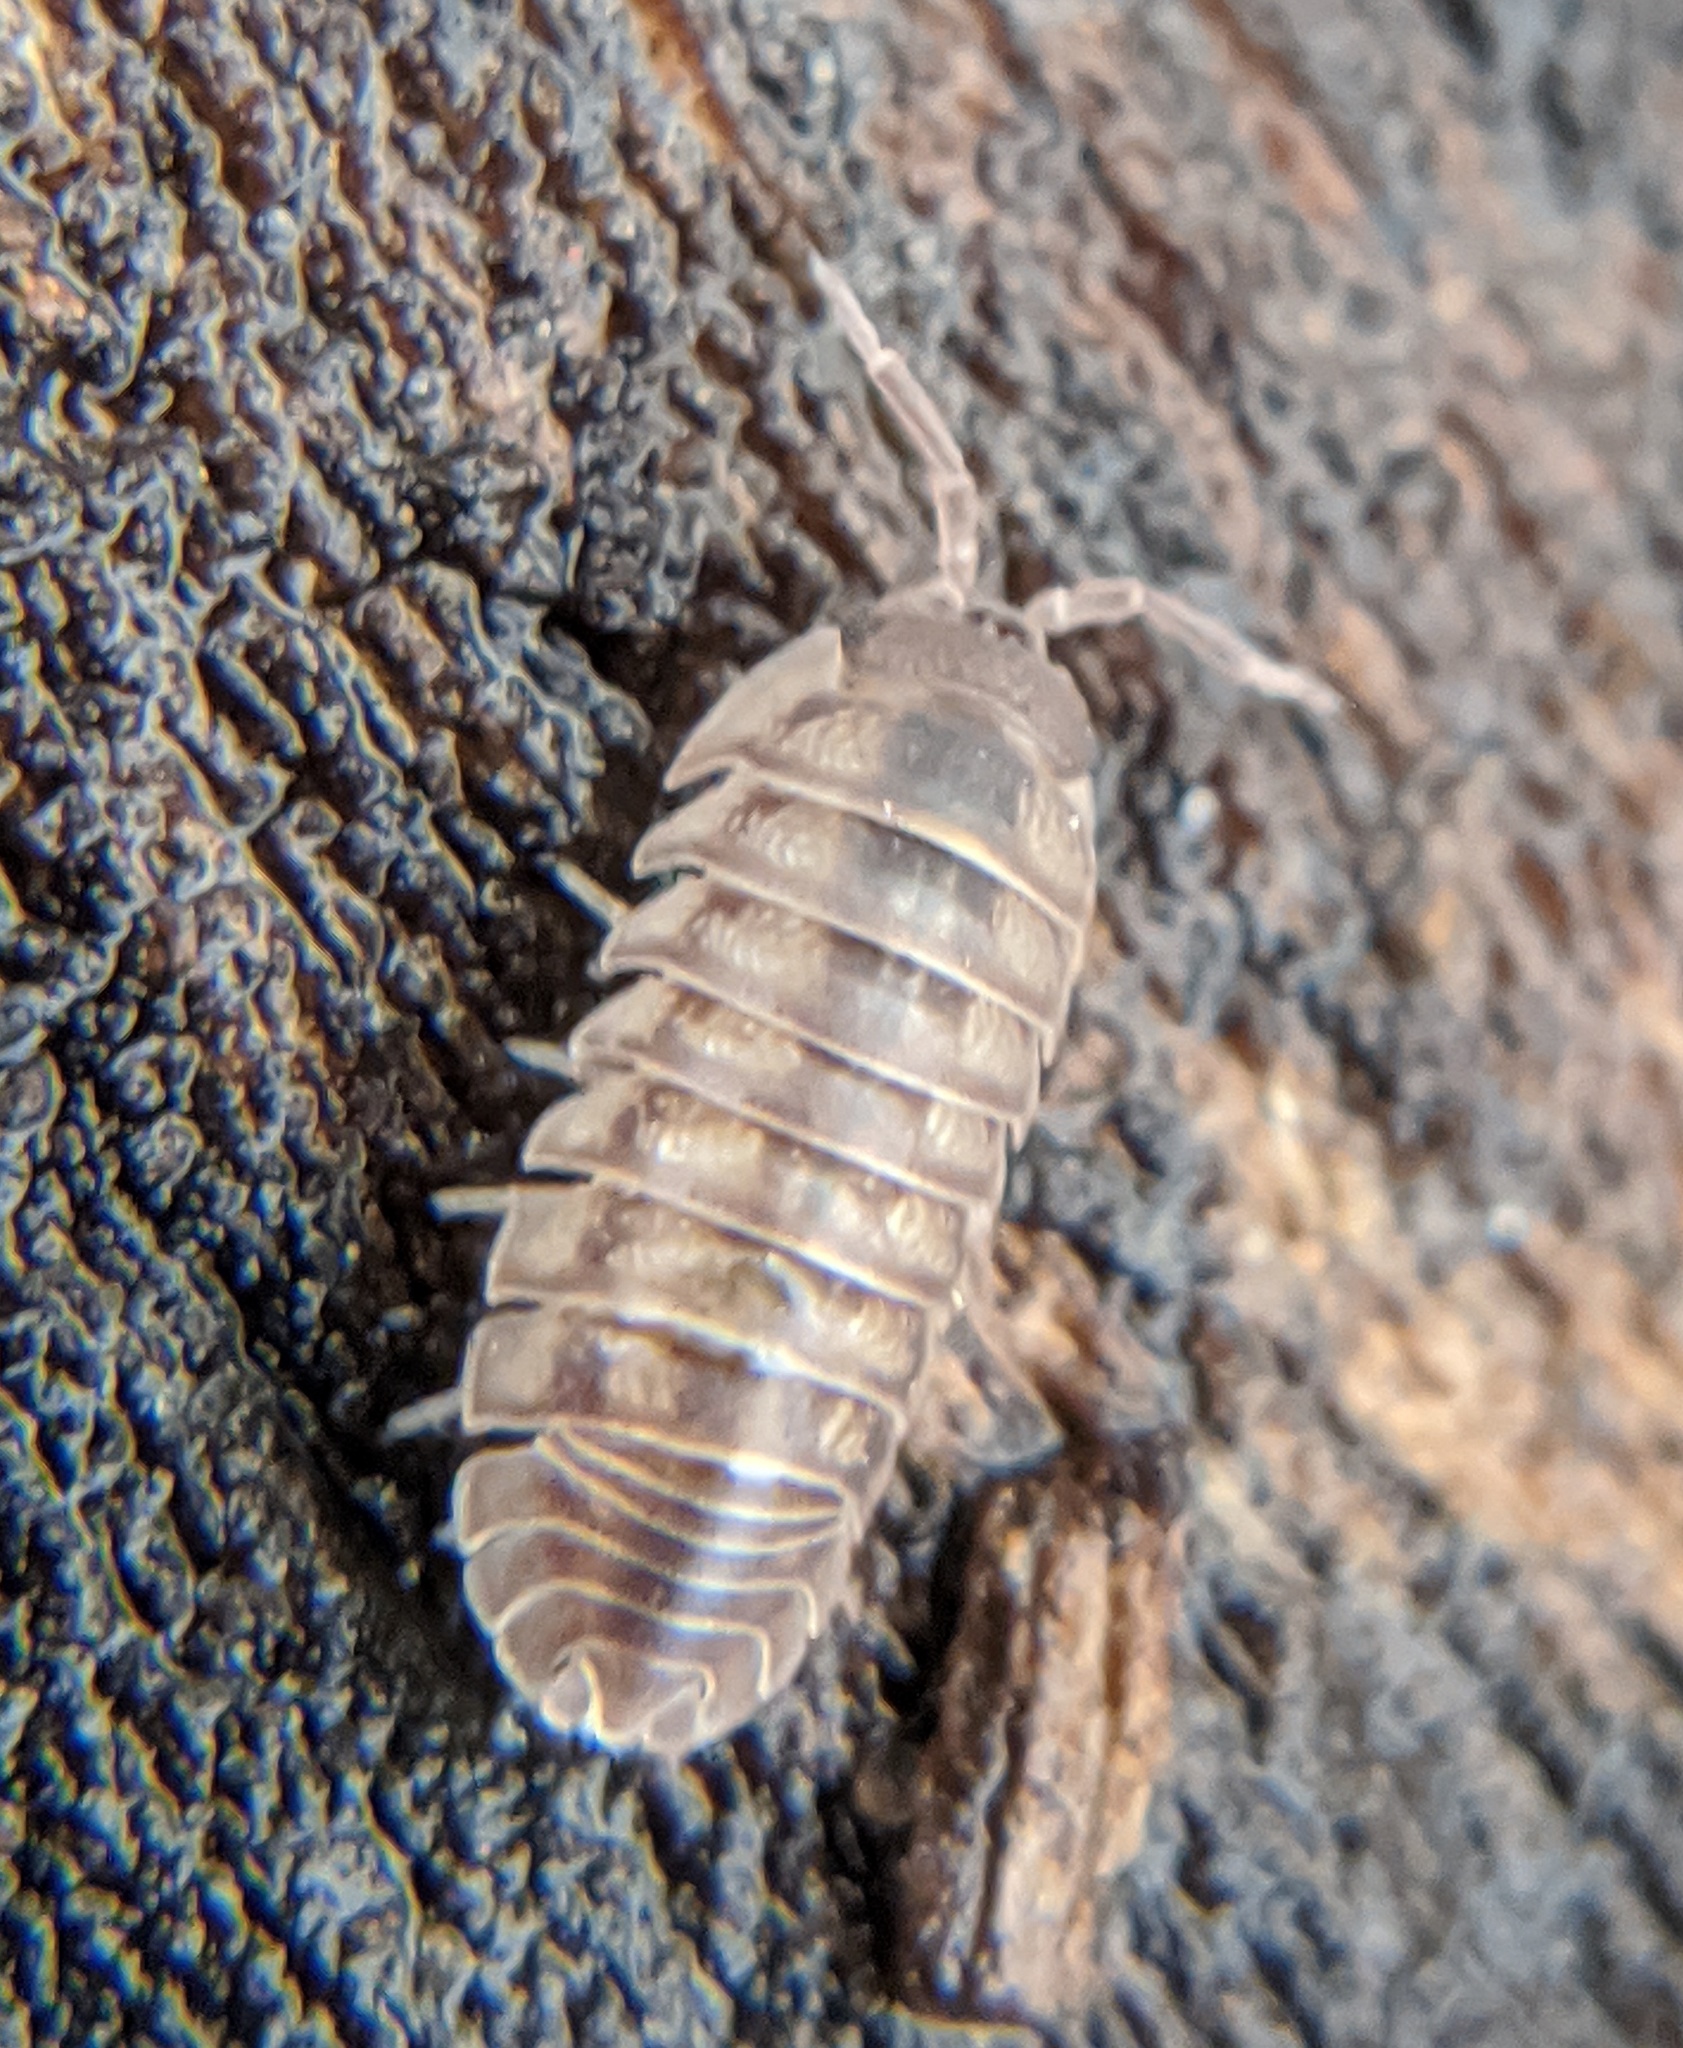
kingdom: Animalia
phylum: Arthropoda
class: Malacostraca
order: Isopoda
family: Armadillidiidae
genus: Armadillidium
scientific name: Armadillidium nasatum
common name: Isopod
